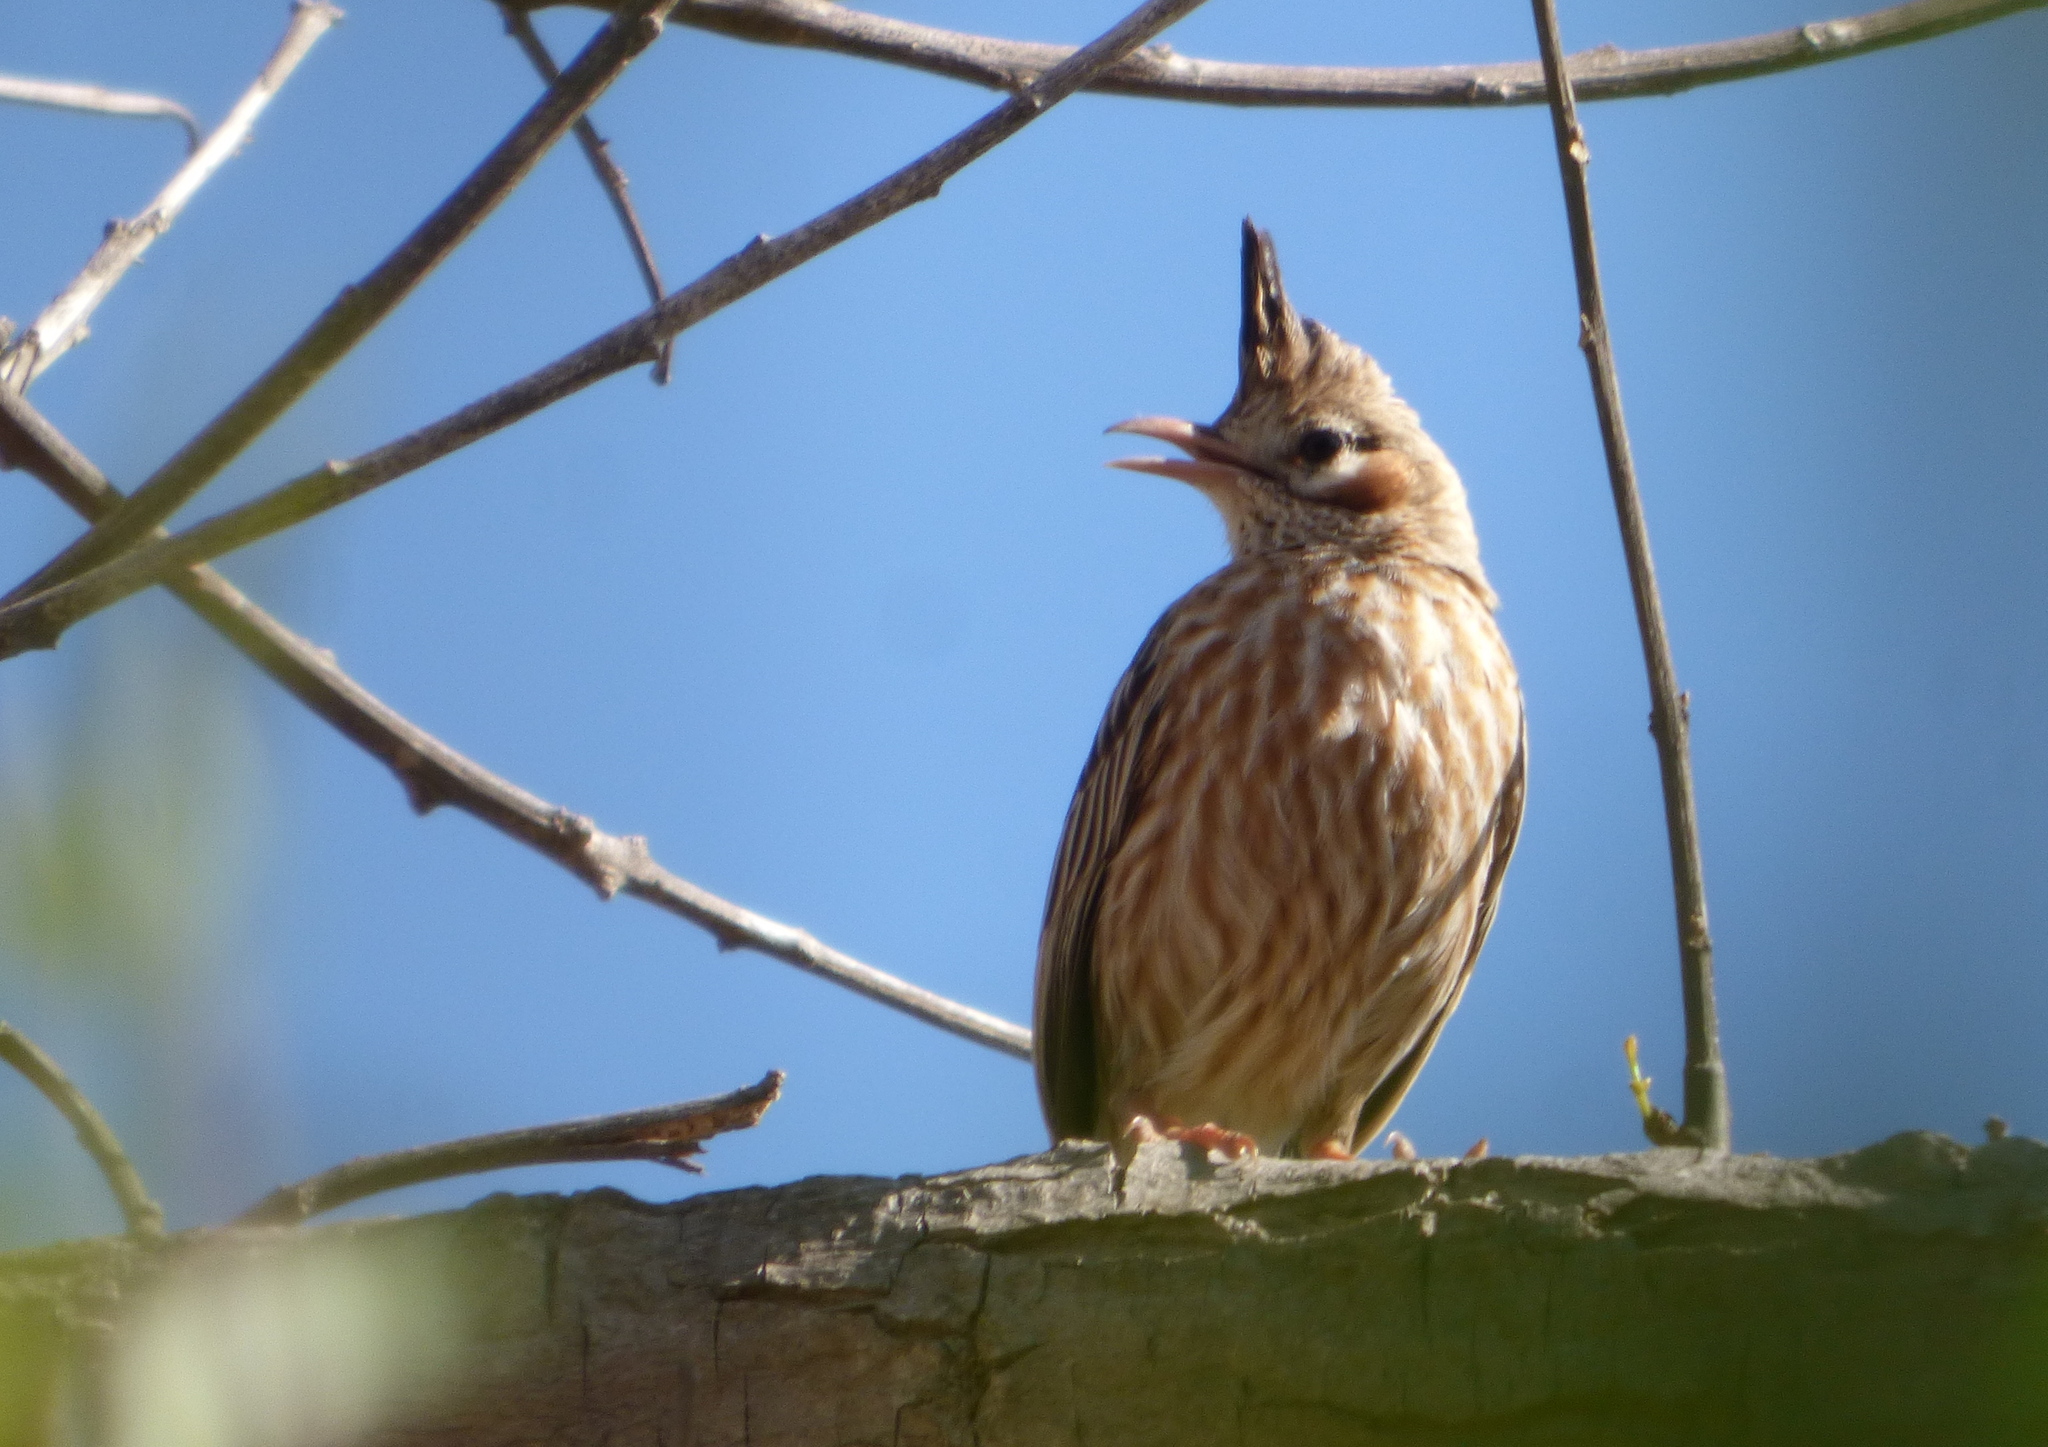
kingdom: Animalia
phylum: Chordata
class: Aves
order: Passeriformes
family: Furnariidae
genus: Coryphistera
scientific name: Coryphistera alaudina
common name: Lark-like brushrunner
